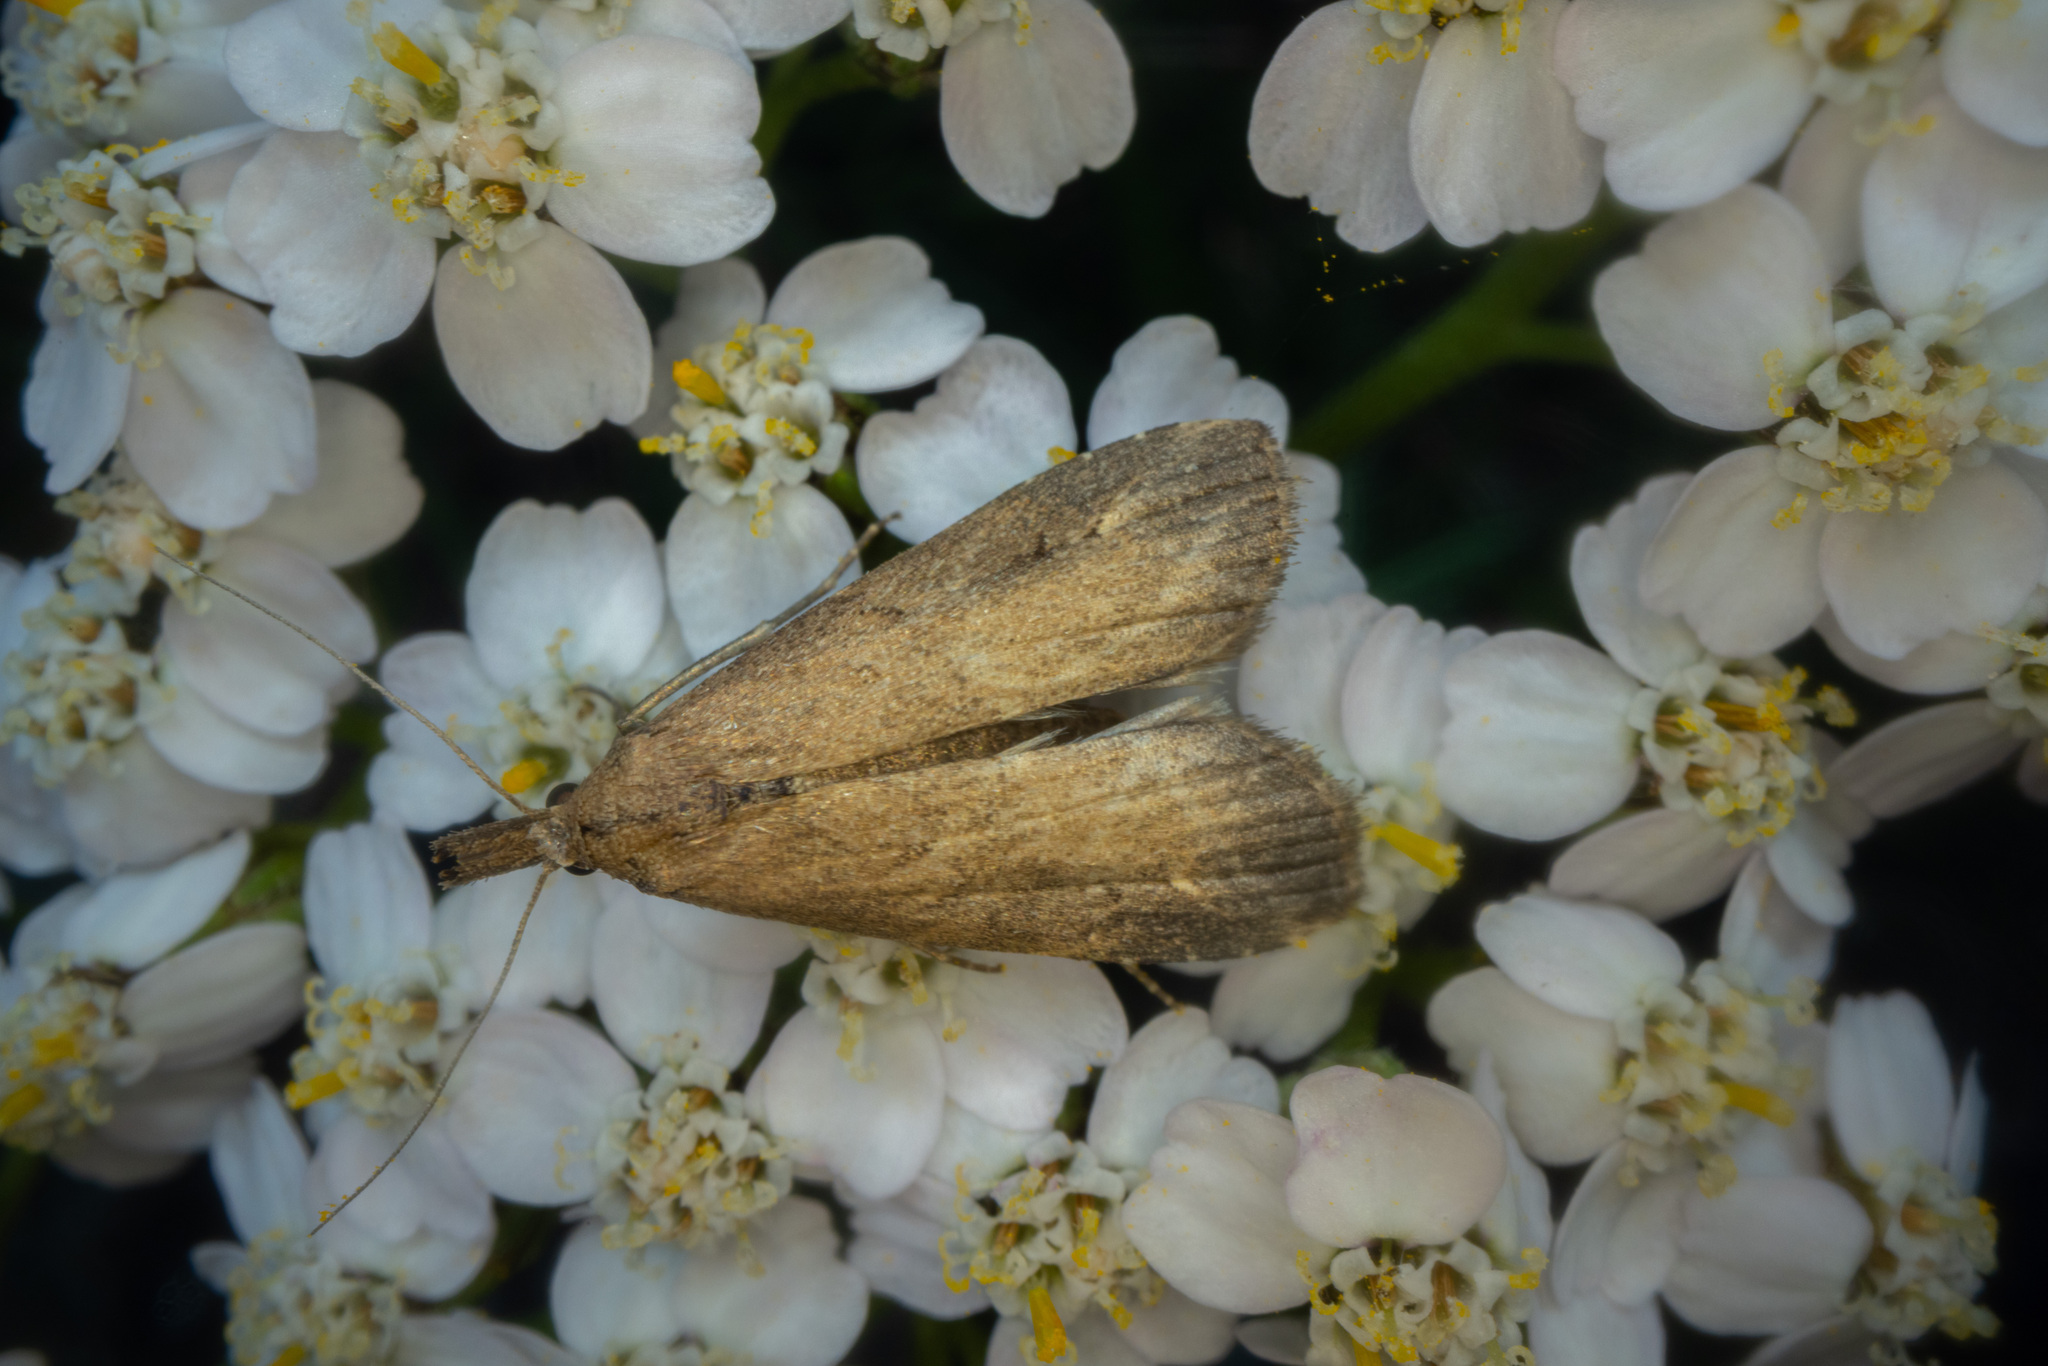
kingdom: Animalia
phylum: Arthropoda
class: Insecta
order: Lepidoptera
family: Erebidae
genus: Schrankia
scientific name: Schrankia costaestrigalis
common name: Pinion-streaked snout
